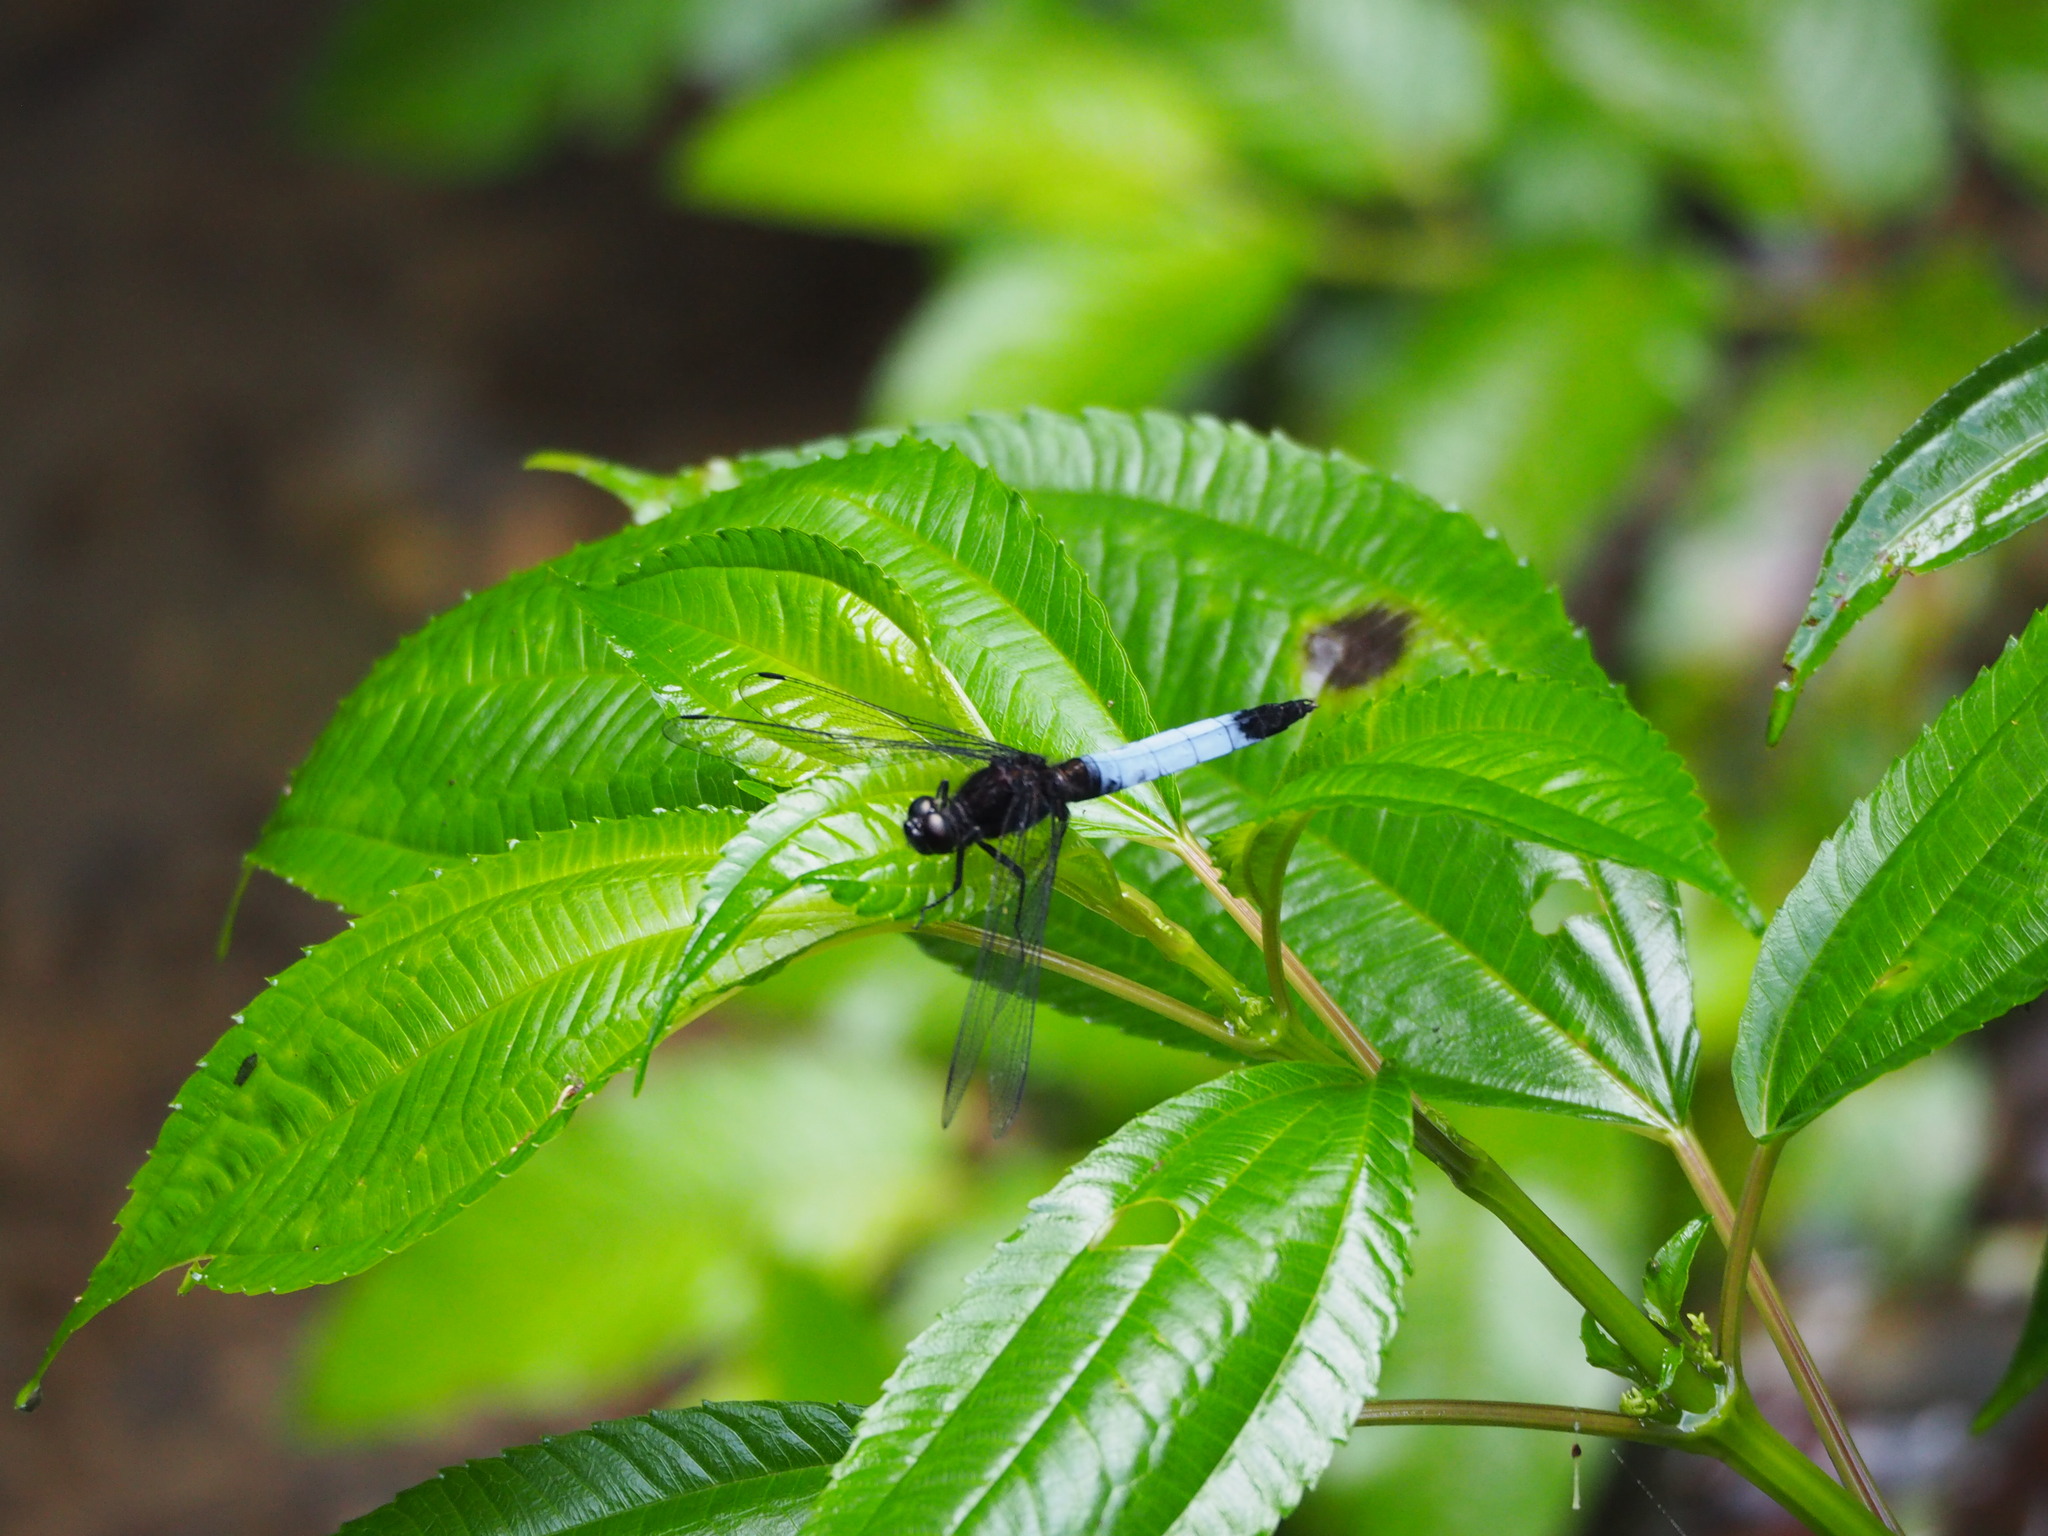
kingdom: Animalia
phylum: Arthropoda
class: Insecta
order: Odonata
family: Libellulidae
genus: Orthetrum
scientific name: Orthetrum triangulare
